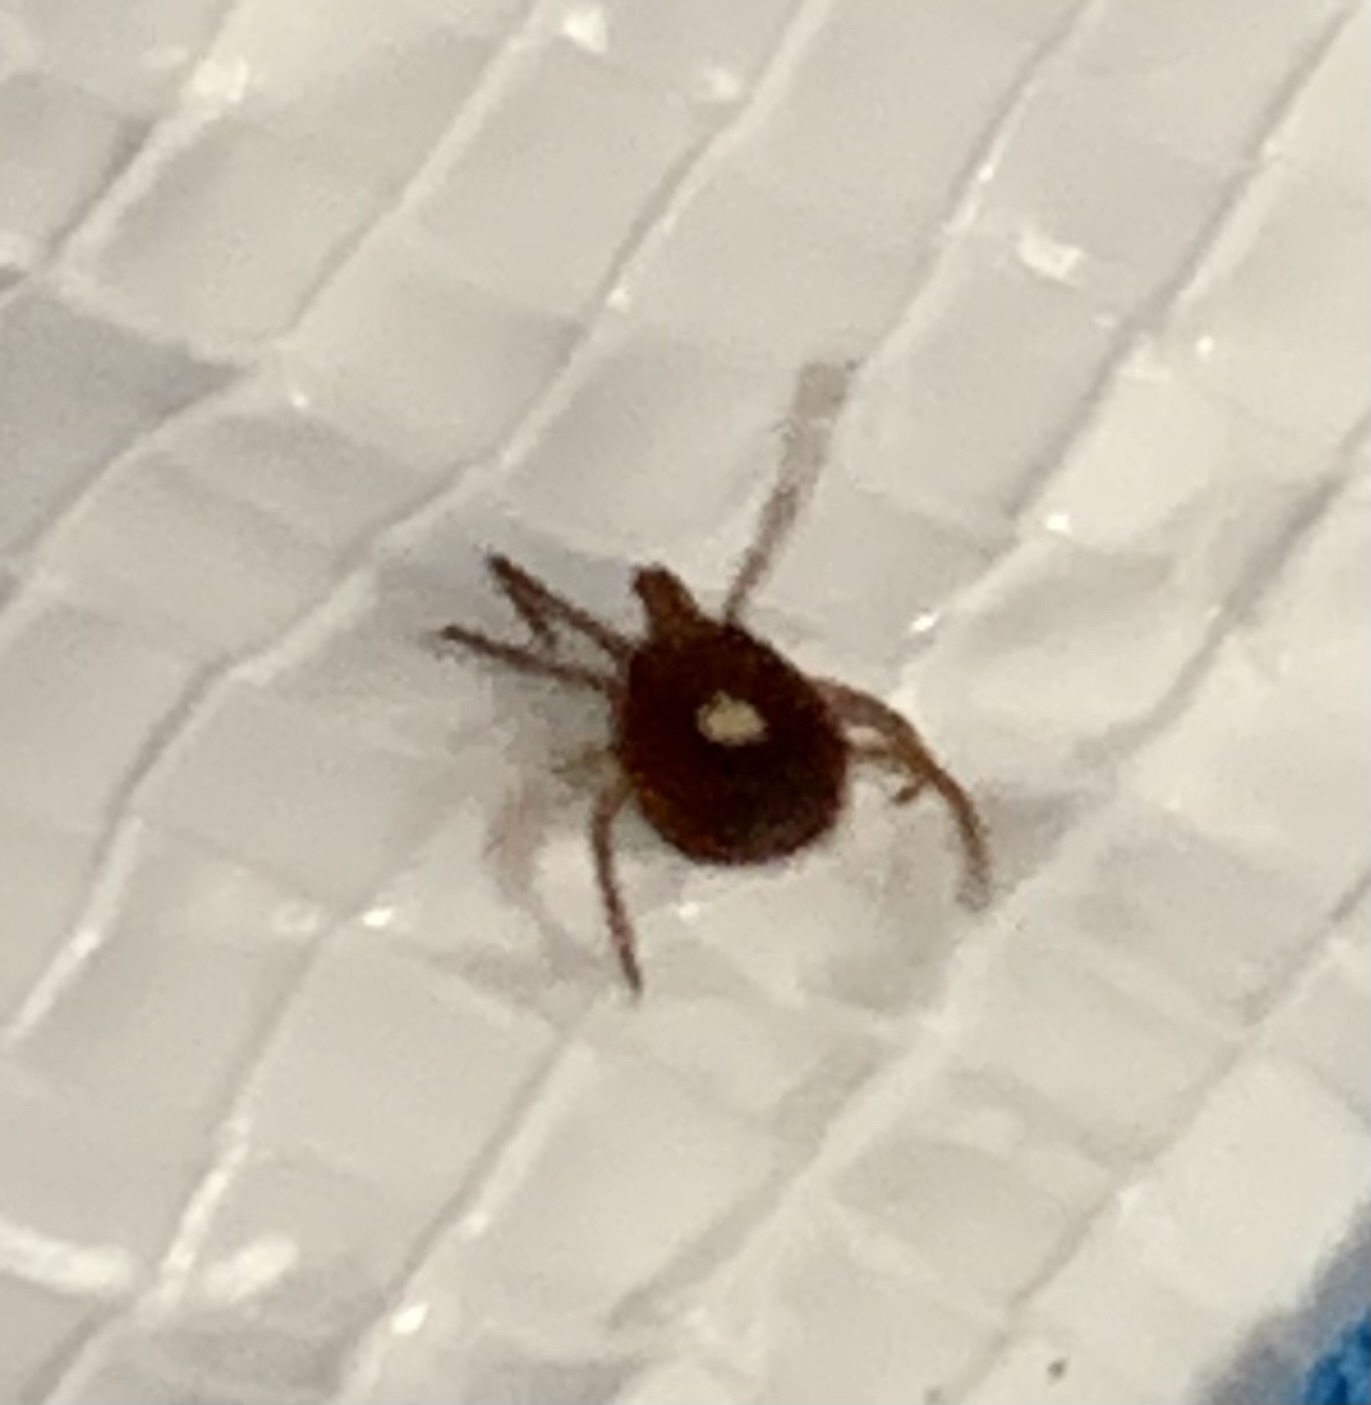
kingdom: Animalia
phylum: Arthropoda
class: Arachnida
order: Ixodida
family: Ixodidae
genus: Amblyomma
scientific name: Amblyomma americanum
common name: Lone star tick
